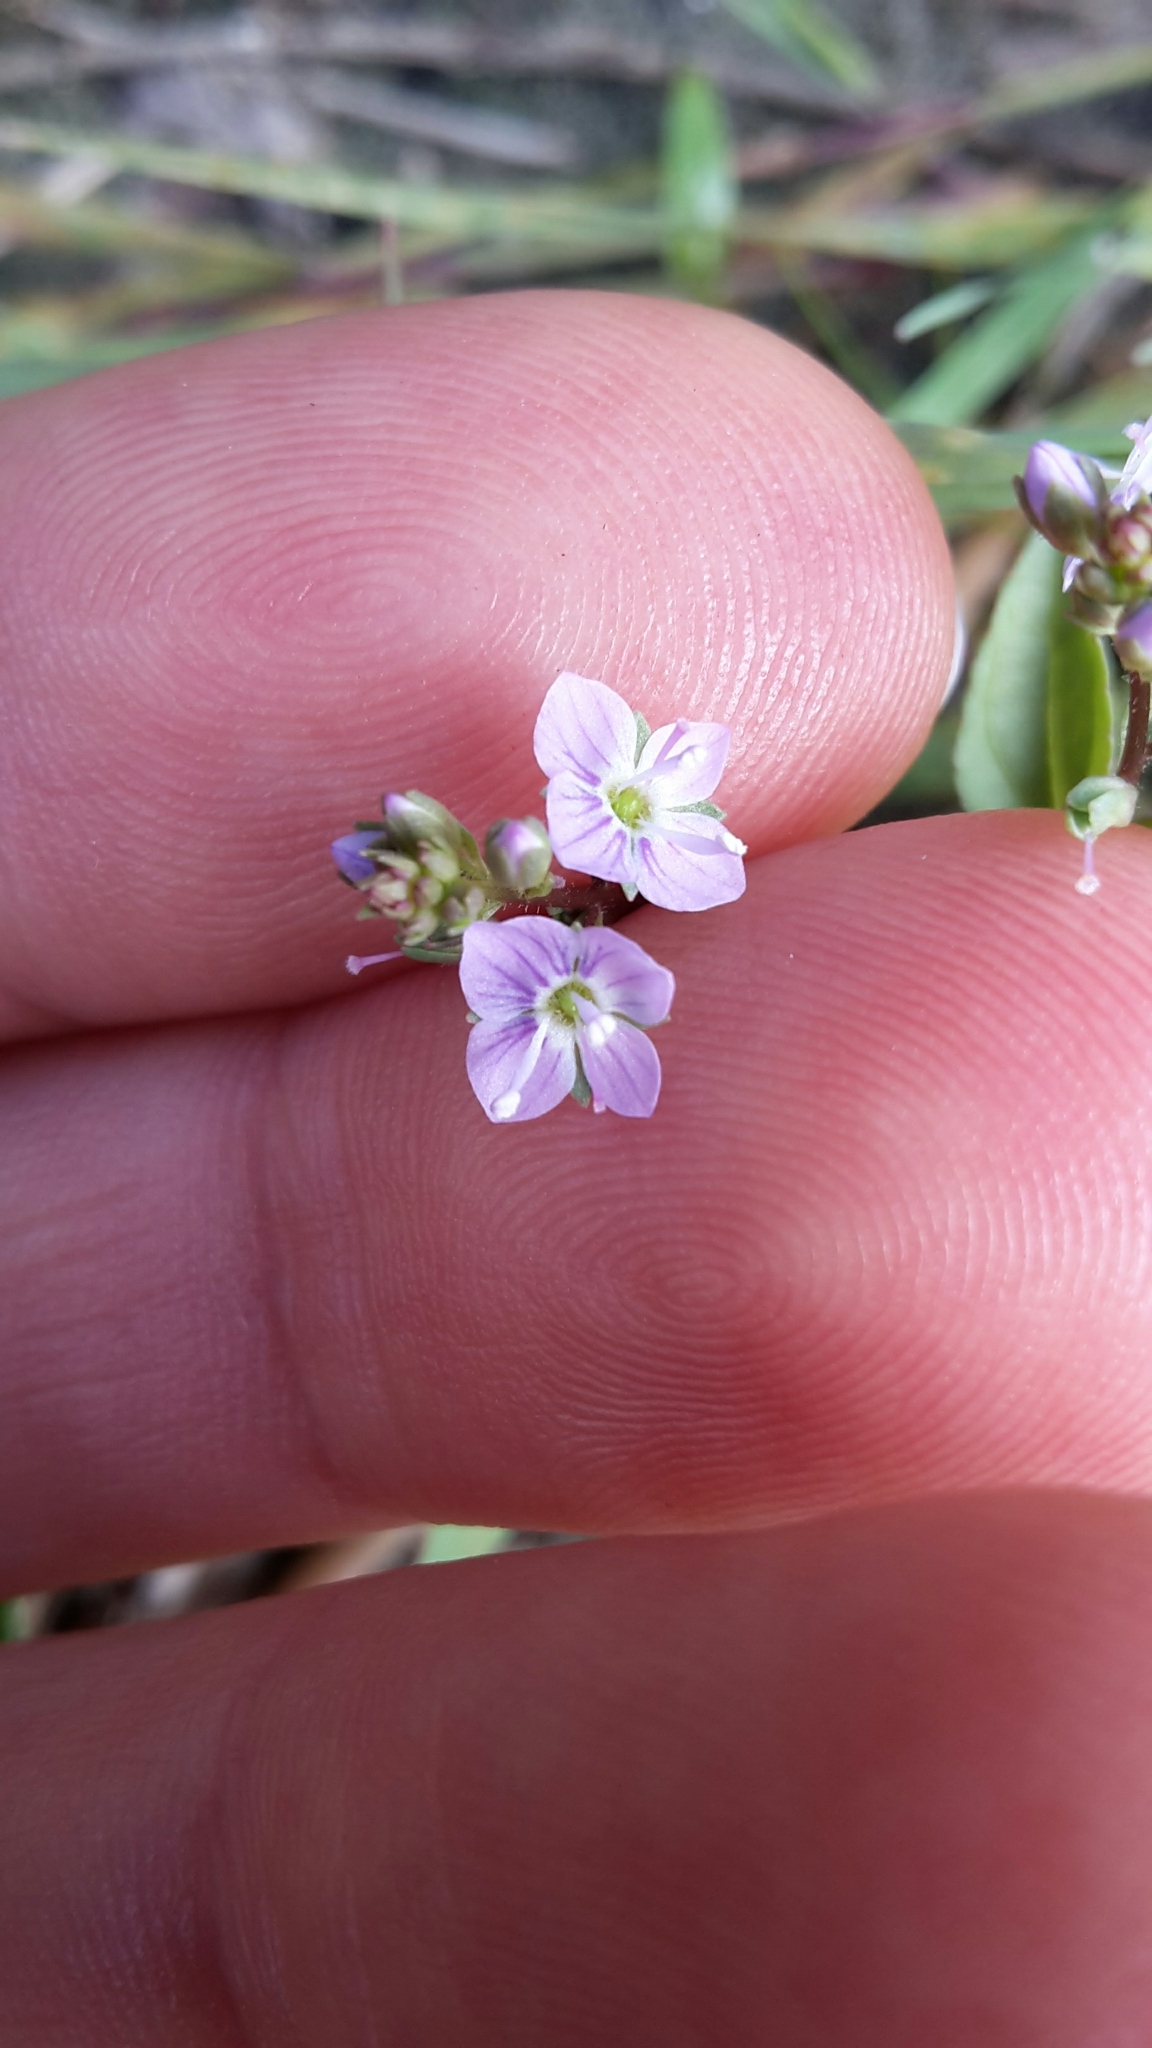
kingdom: Plantae
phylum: Tracheophyta
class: Magnoliopsida
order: Lamiales
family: Plantaginaceae
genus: Veronica
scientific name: Veronica anagallis-aquatica
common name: Water speedwell
